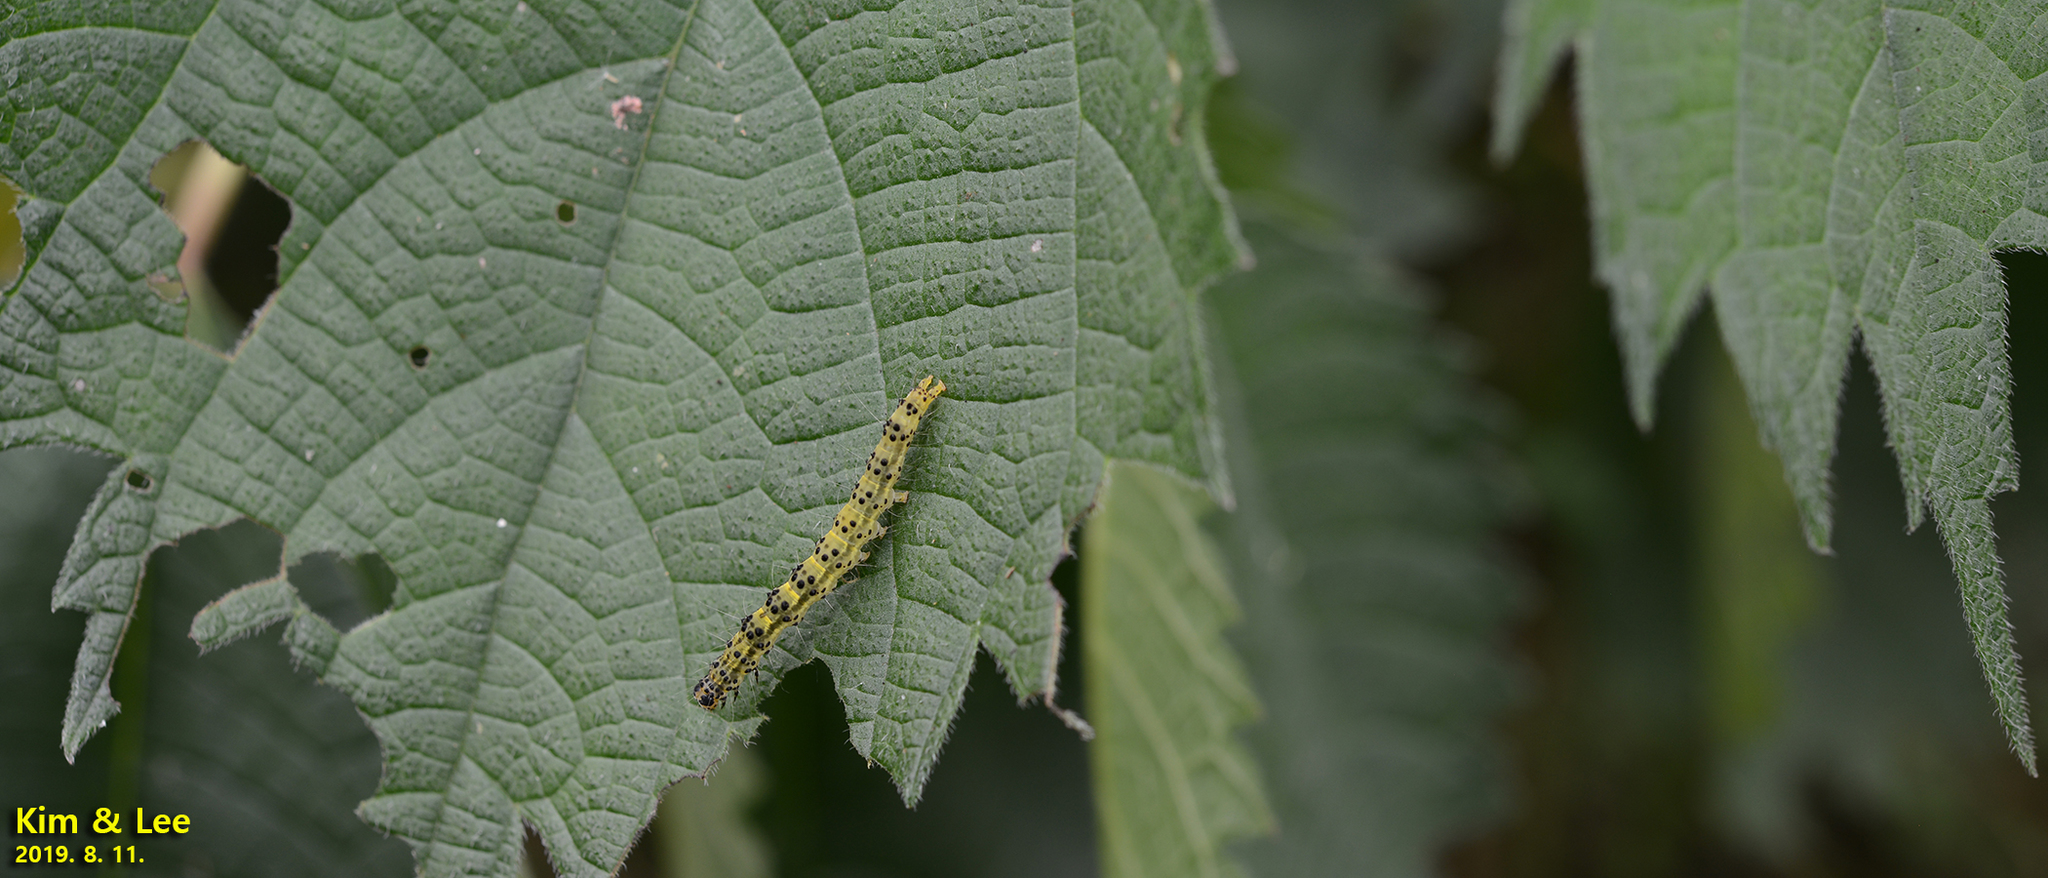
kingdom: Animalia
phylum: Arthropoda
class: Insecta
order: Lepidoptera
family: Erebidae
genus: Hypena
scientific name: Hypena amica
